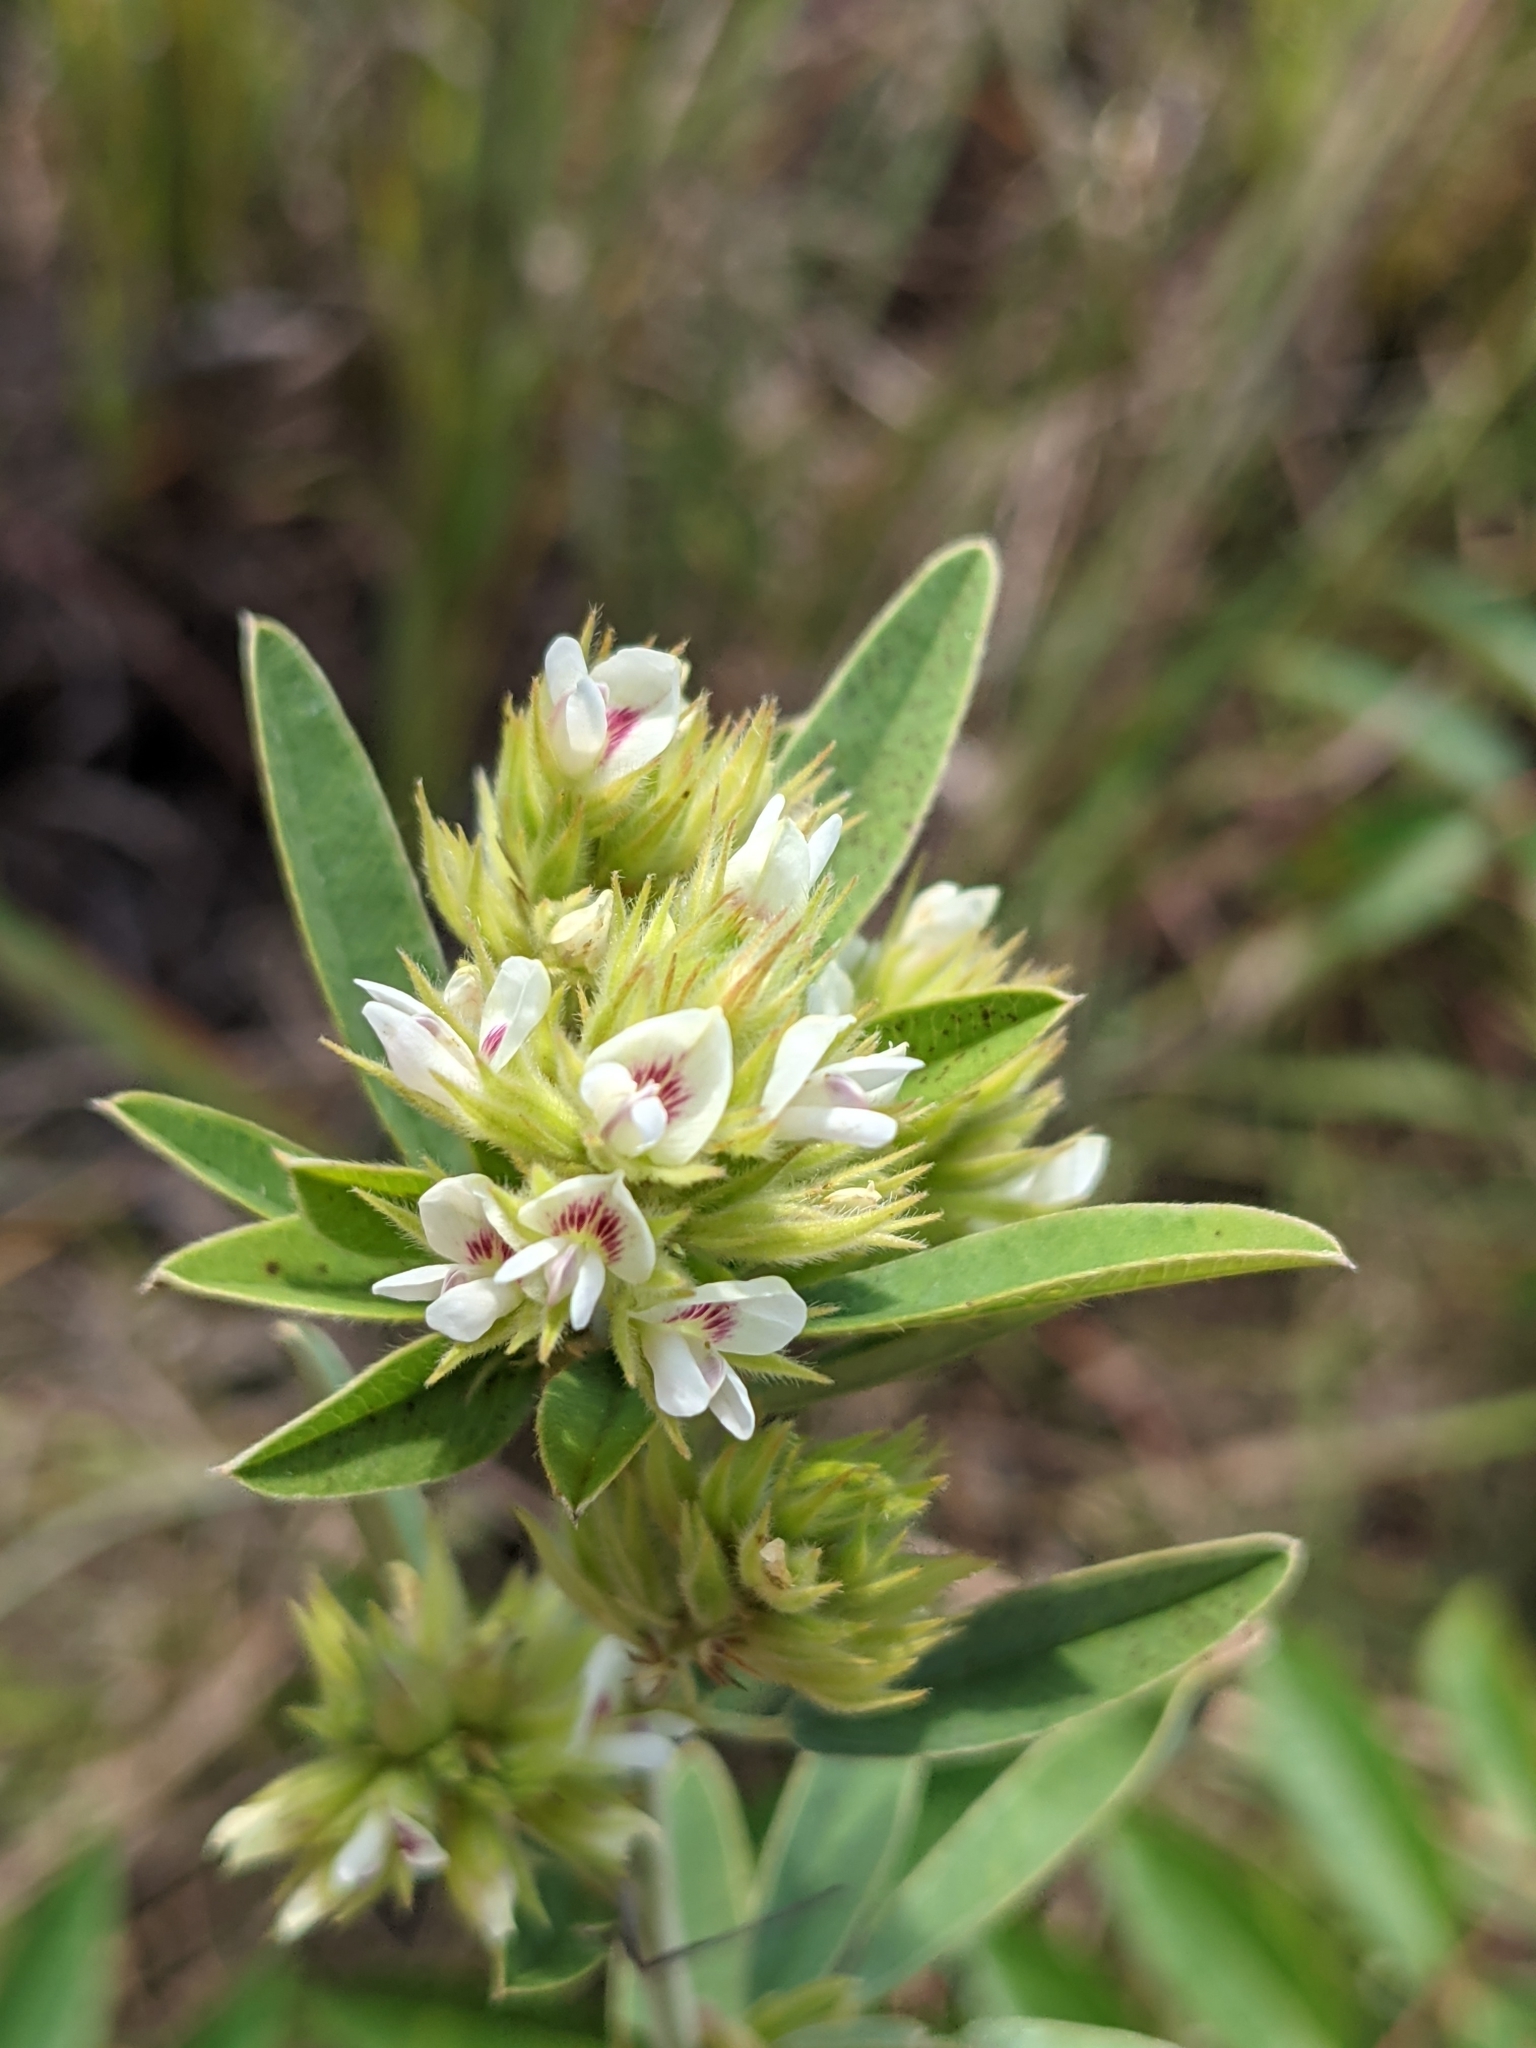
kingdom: Plantae
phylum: Tracheophyta
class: Magnoliopsida
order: Fabales
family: Fabaceae
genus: Lespedeza
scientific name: Lespedeza capitata
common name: Dusty clover
